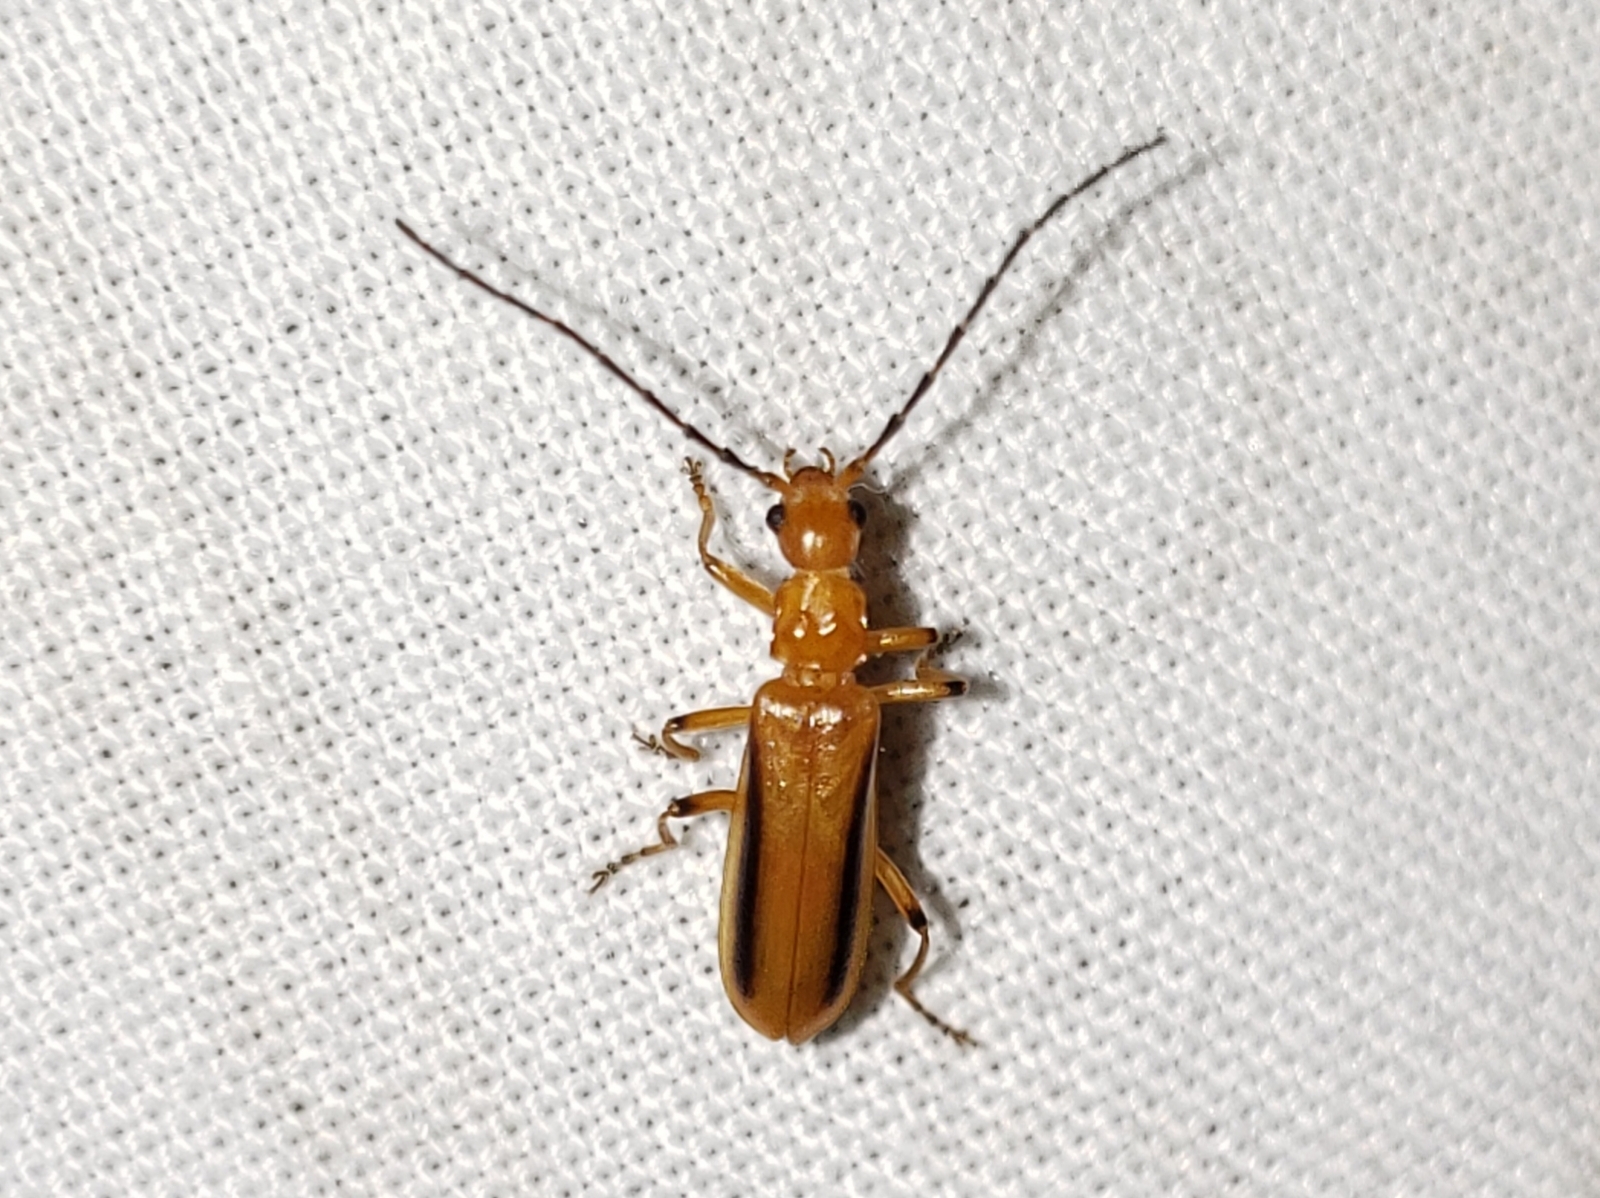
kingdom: Animalia
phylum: Arthropoda
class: Insecta
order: Coleoptera
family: Cantharidae
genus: Rhagonycha
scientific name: Rhagonycha longula
